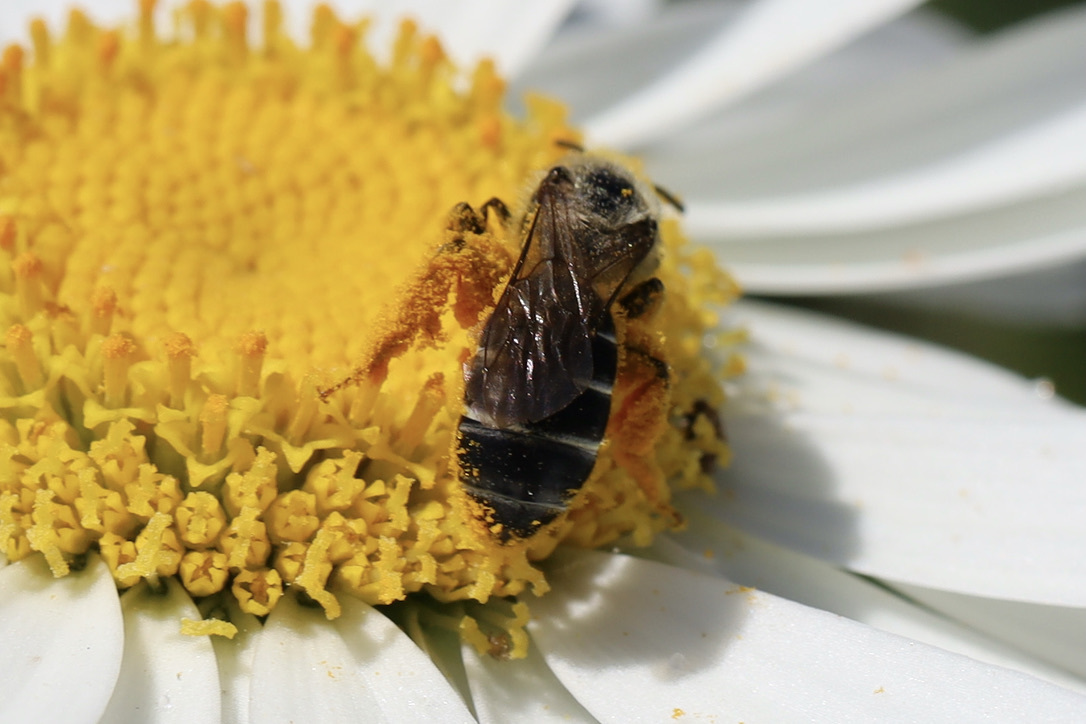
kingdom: Animalia
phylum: Arthropoda
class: Insecta
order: Hymenoptera
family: Halictidae
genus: Halictus
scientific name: Halictus rubicundus
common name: Orange-legged furrow bee
